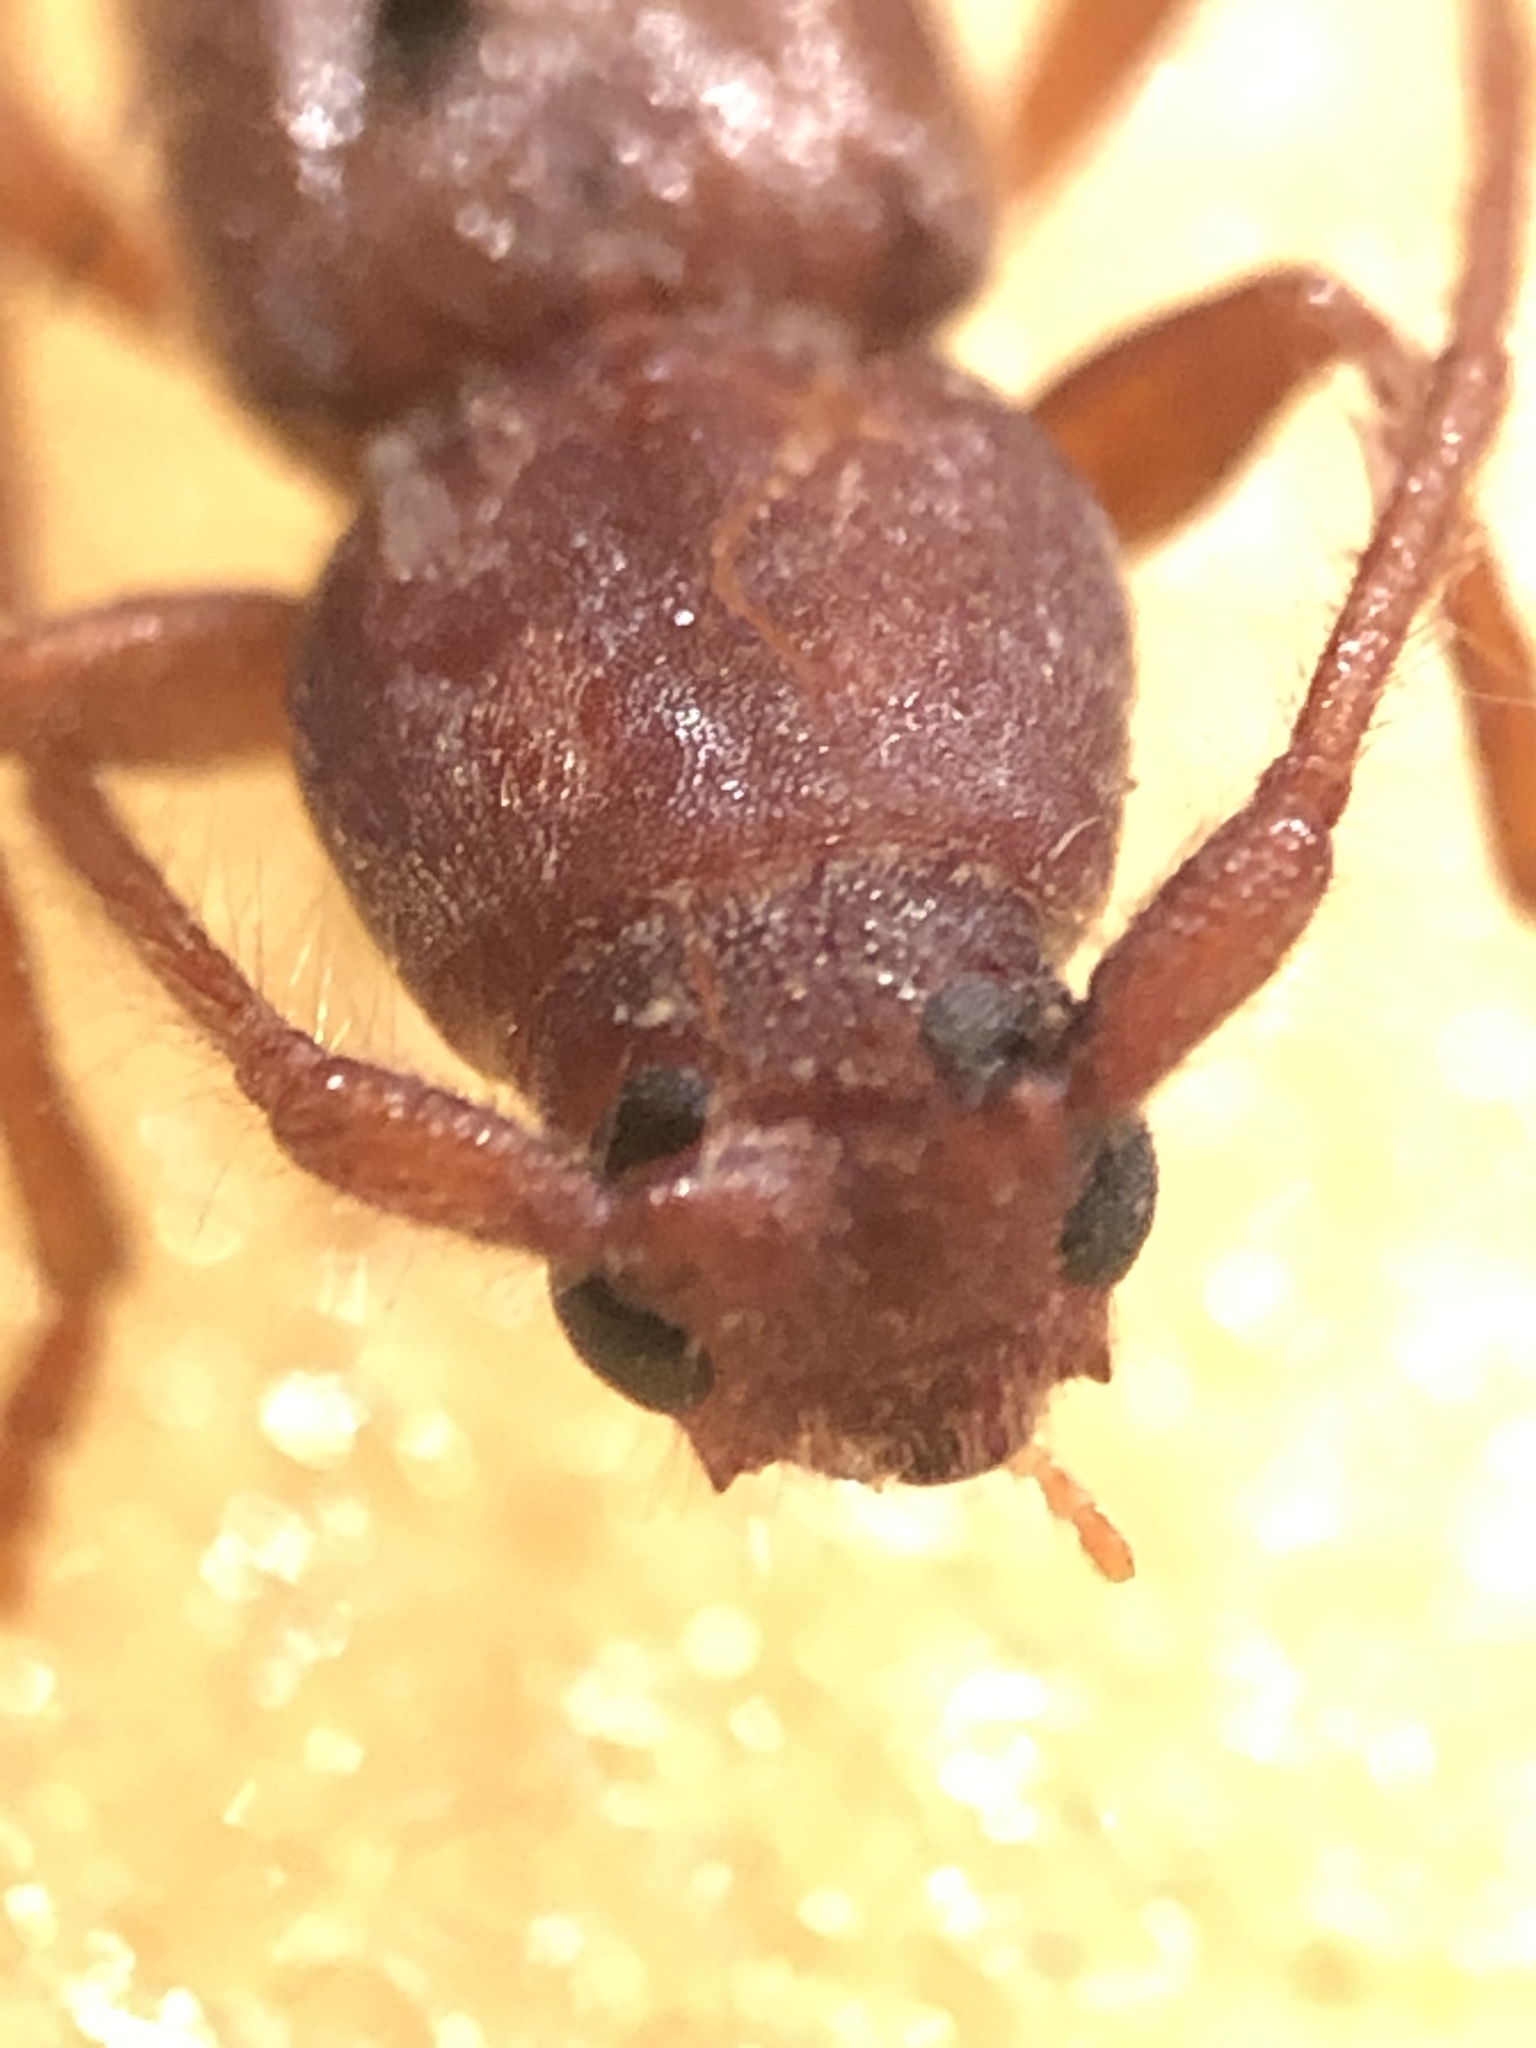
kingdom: Animalia
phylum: Arthropoda
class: Insecta
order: Coleoptera
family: Cerambycidae
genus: Paranoplium
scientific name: Paranoplium gracile
